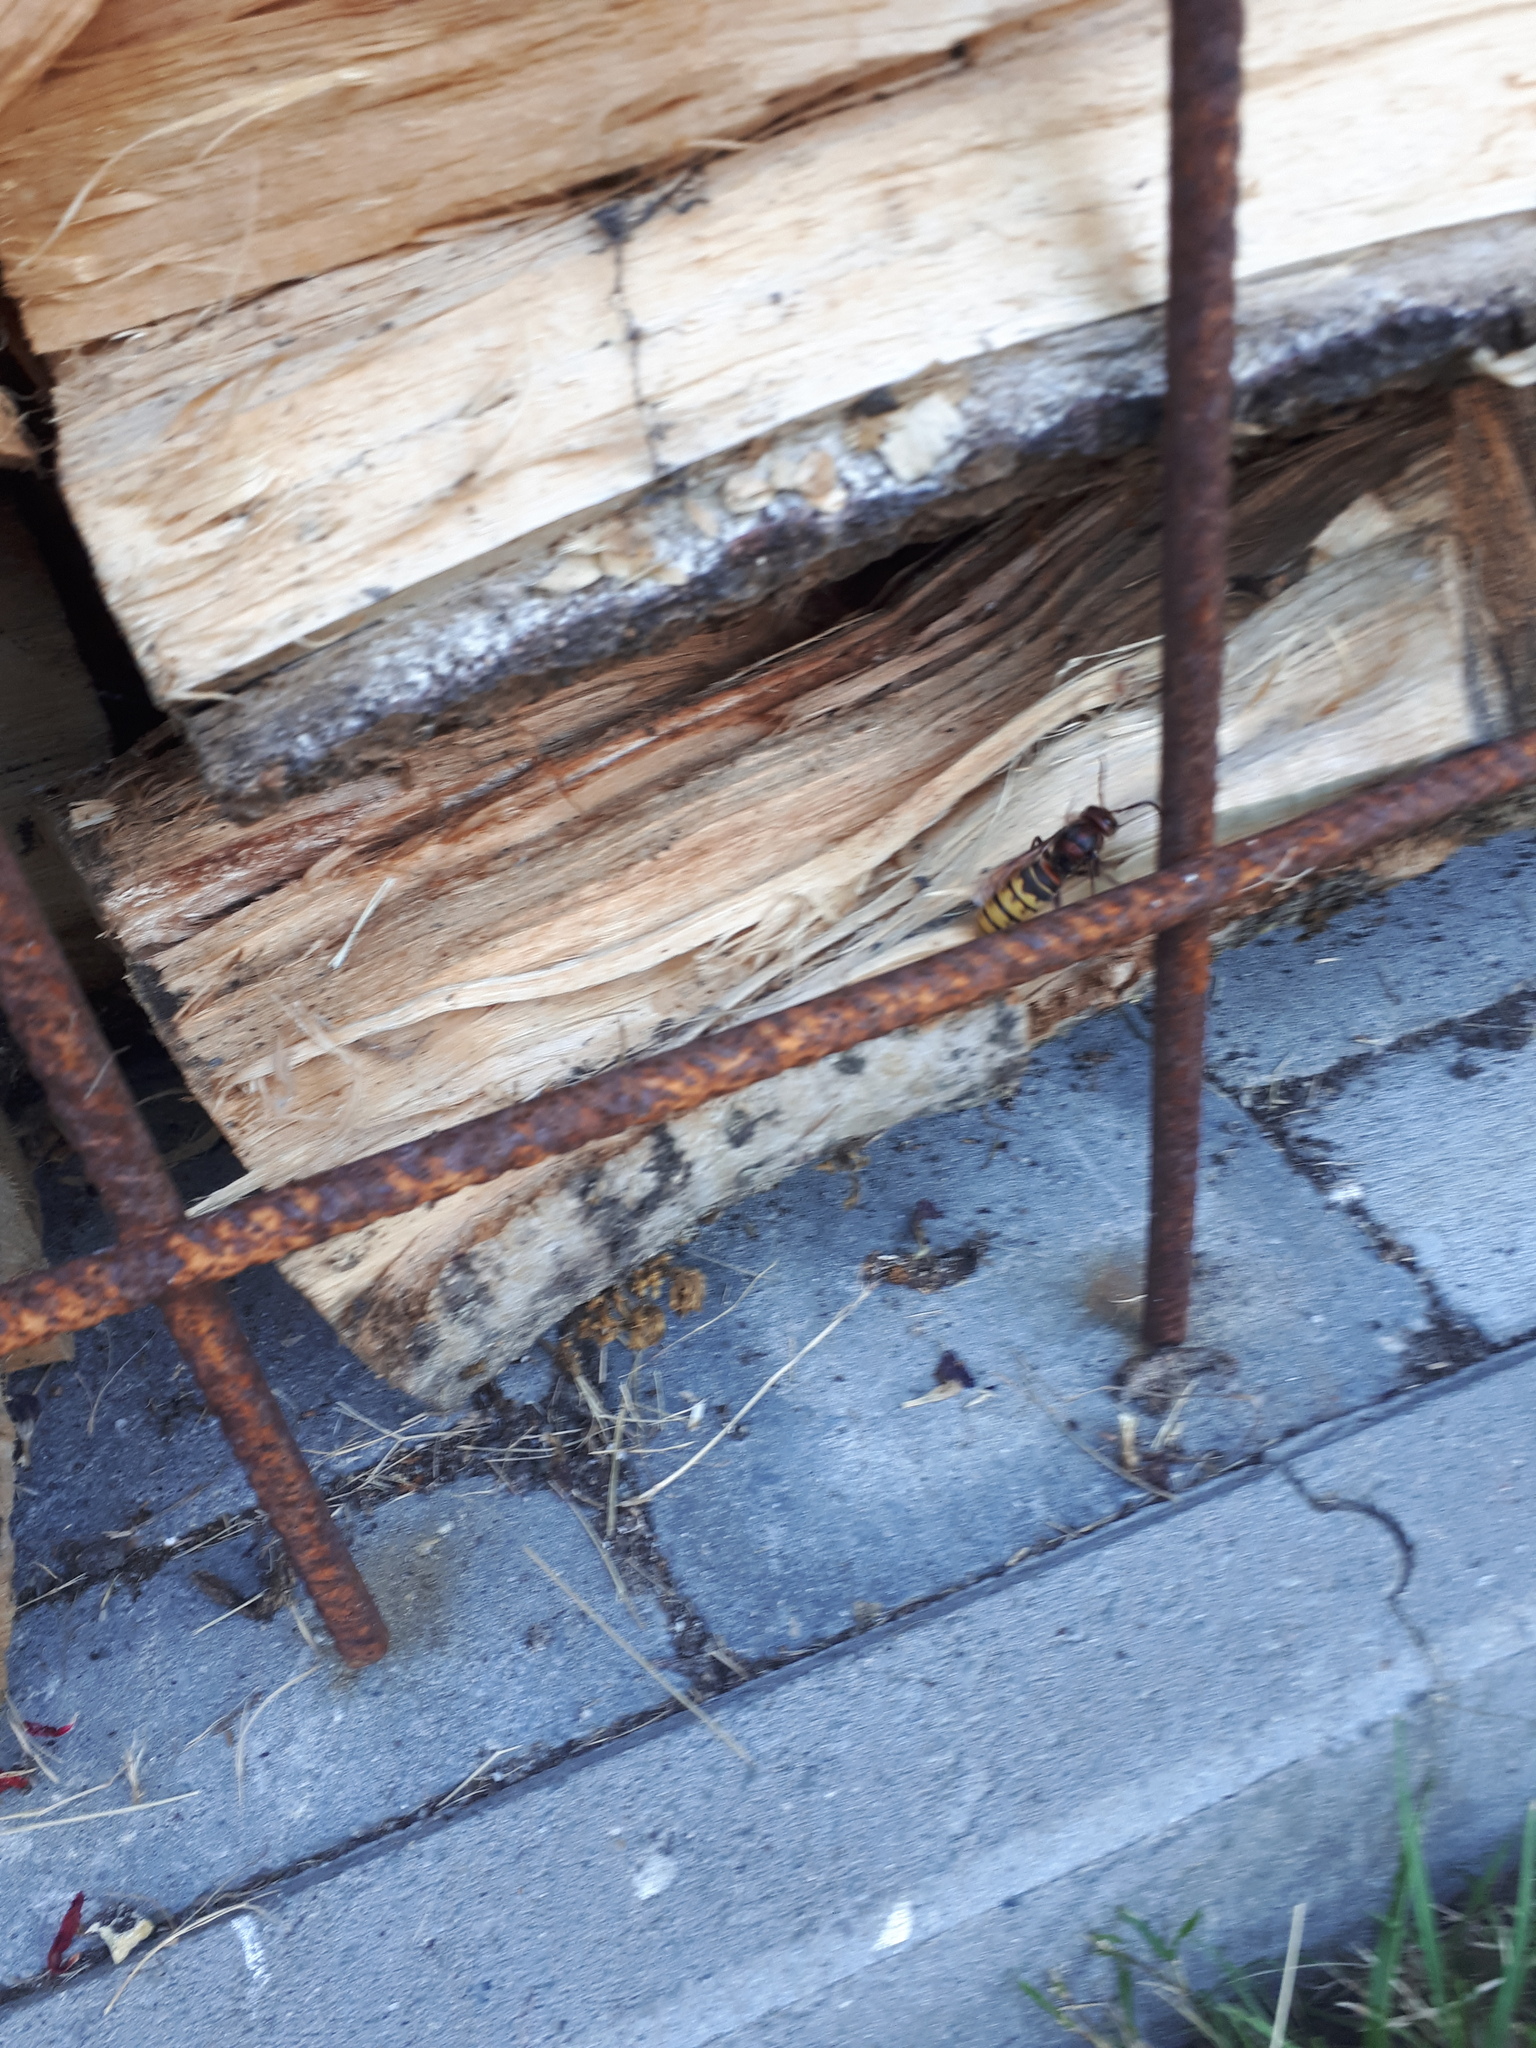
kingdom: Animalia
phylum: Arthropoda
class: Insecta
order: Hymenoptera
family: Vespidae
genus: Vespa
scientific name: Vespa crabro
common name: Hornet
